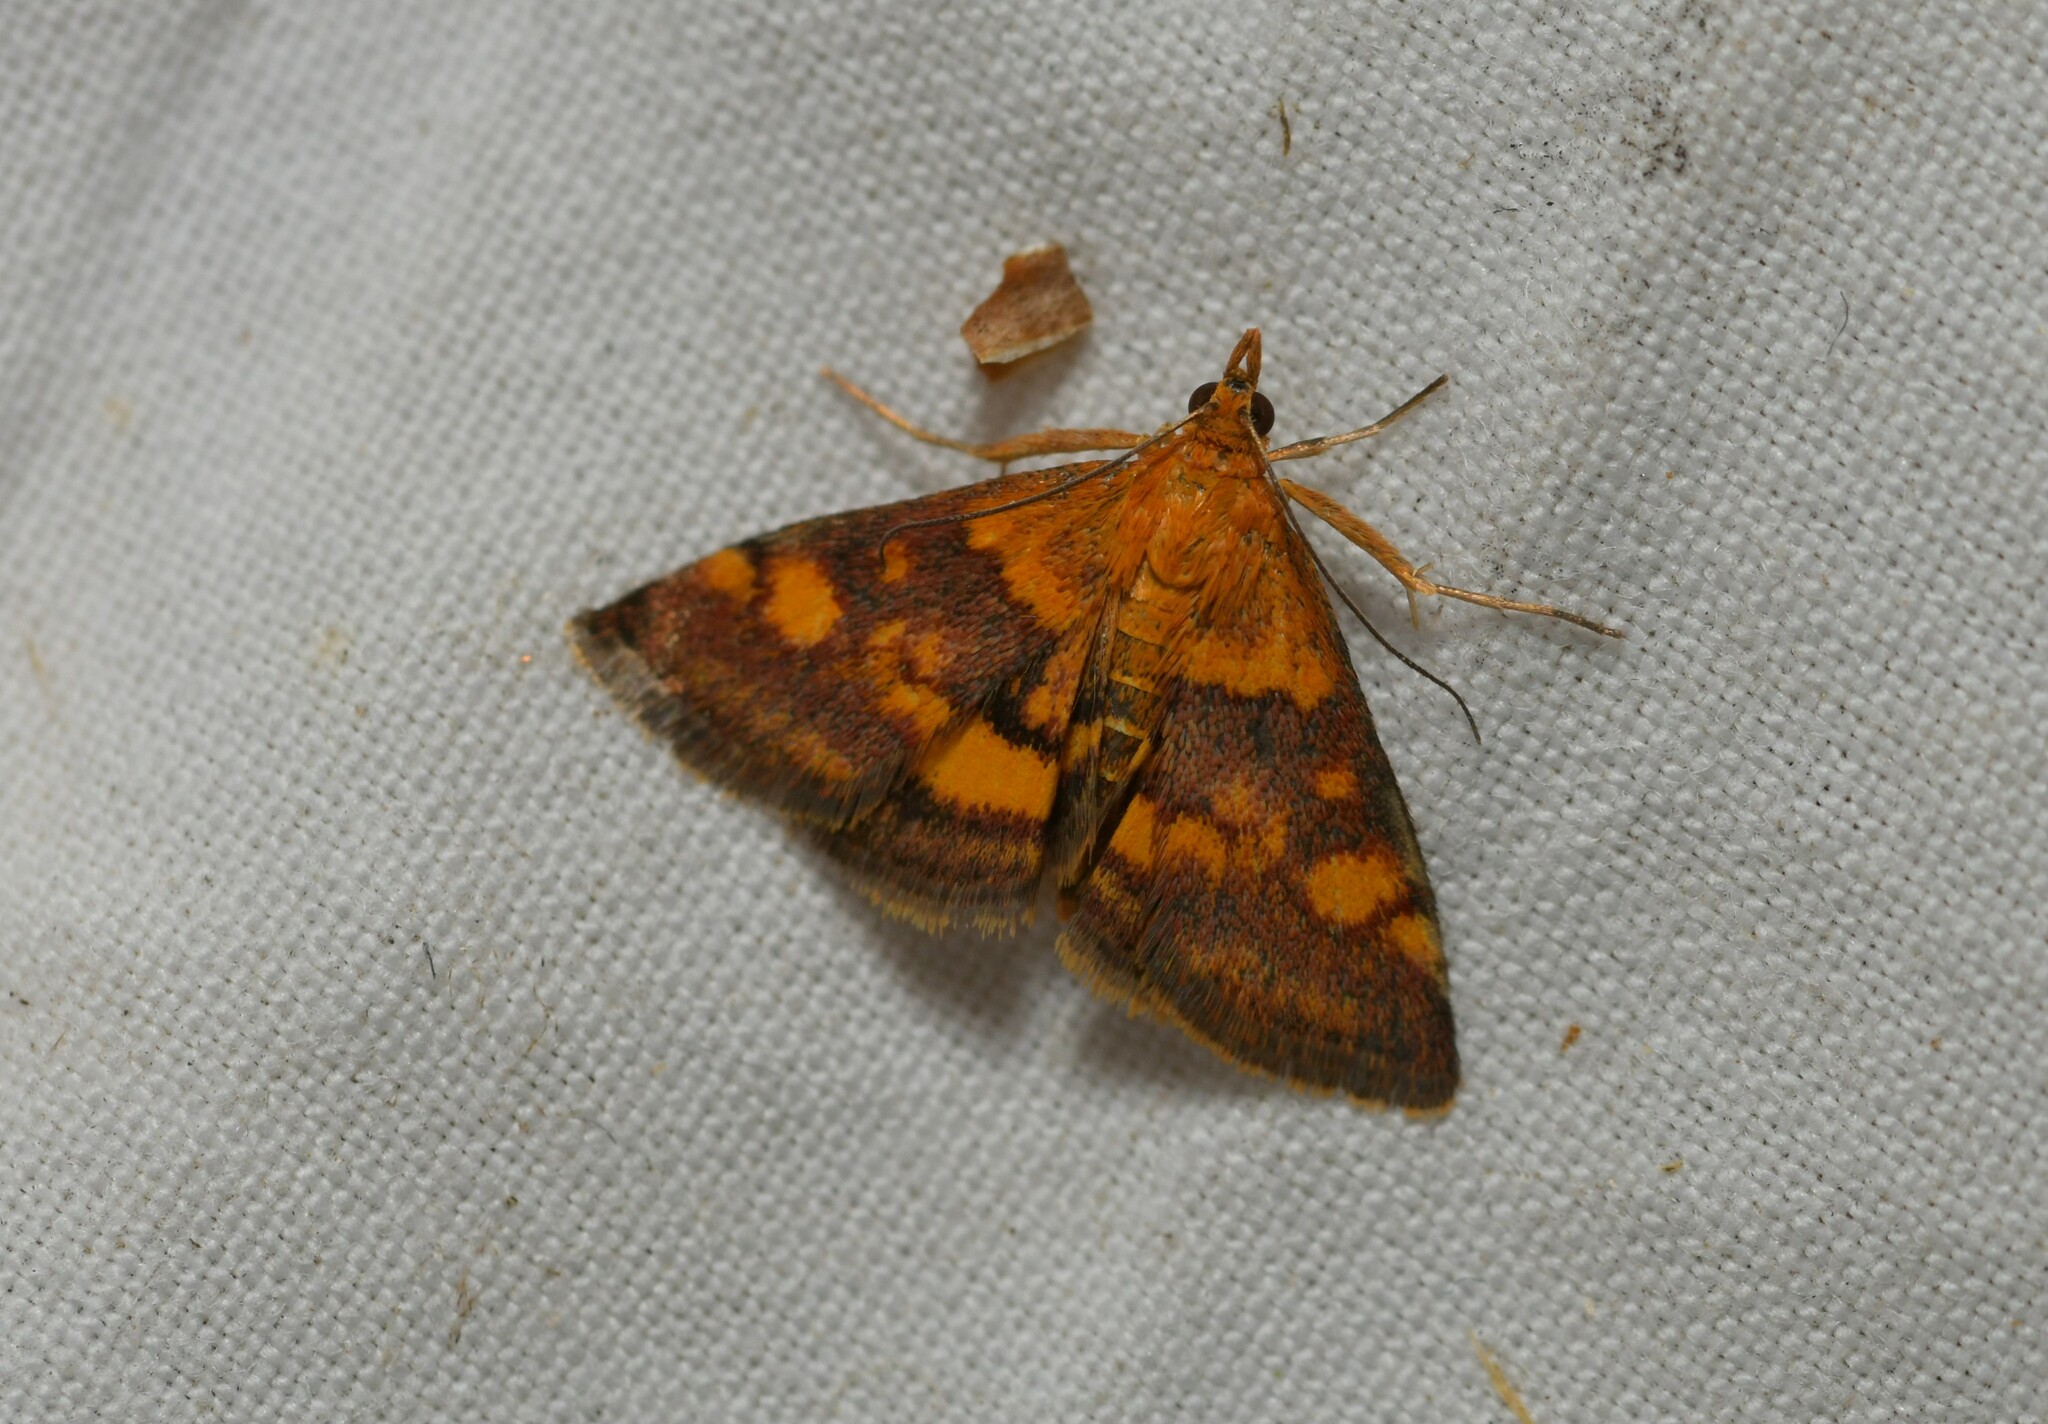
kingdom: Animalia
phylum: Arthropoda
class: Insecta
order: Lepidoptera
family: Crambidae
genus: Pyrausta
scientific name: Pyrausta aurata
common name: Small purple & gold
